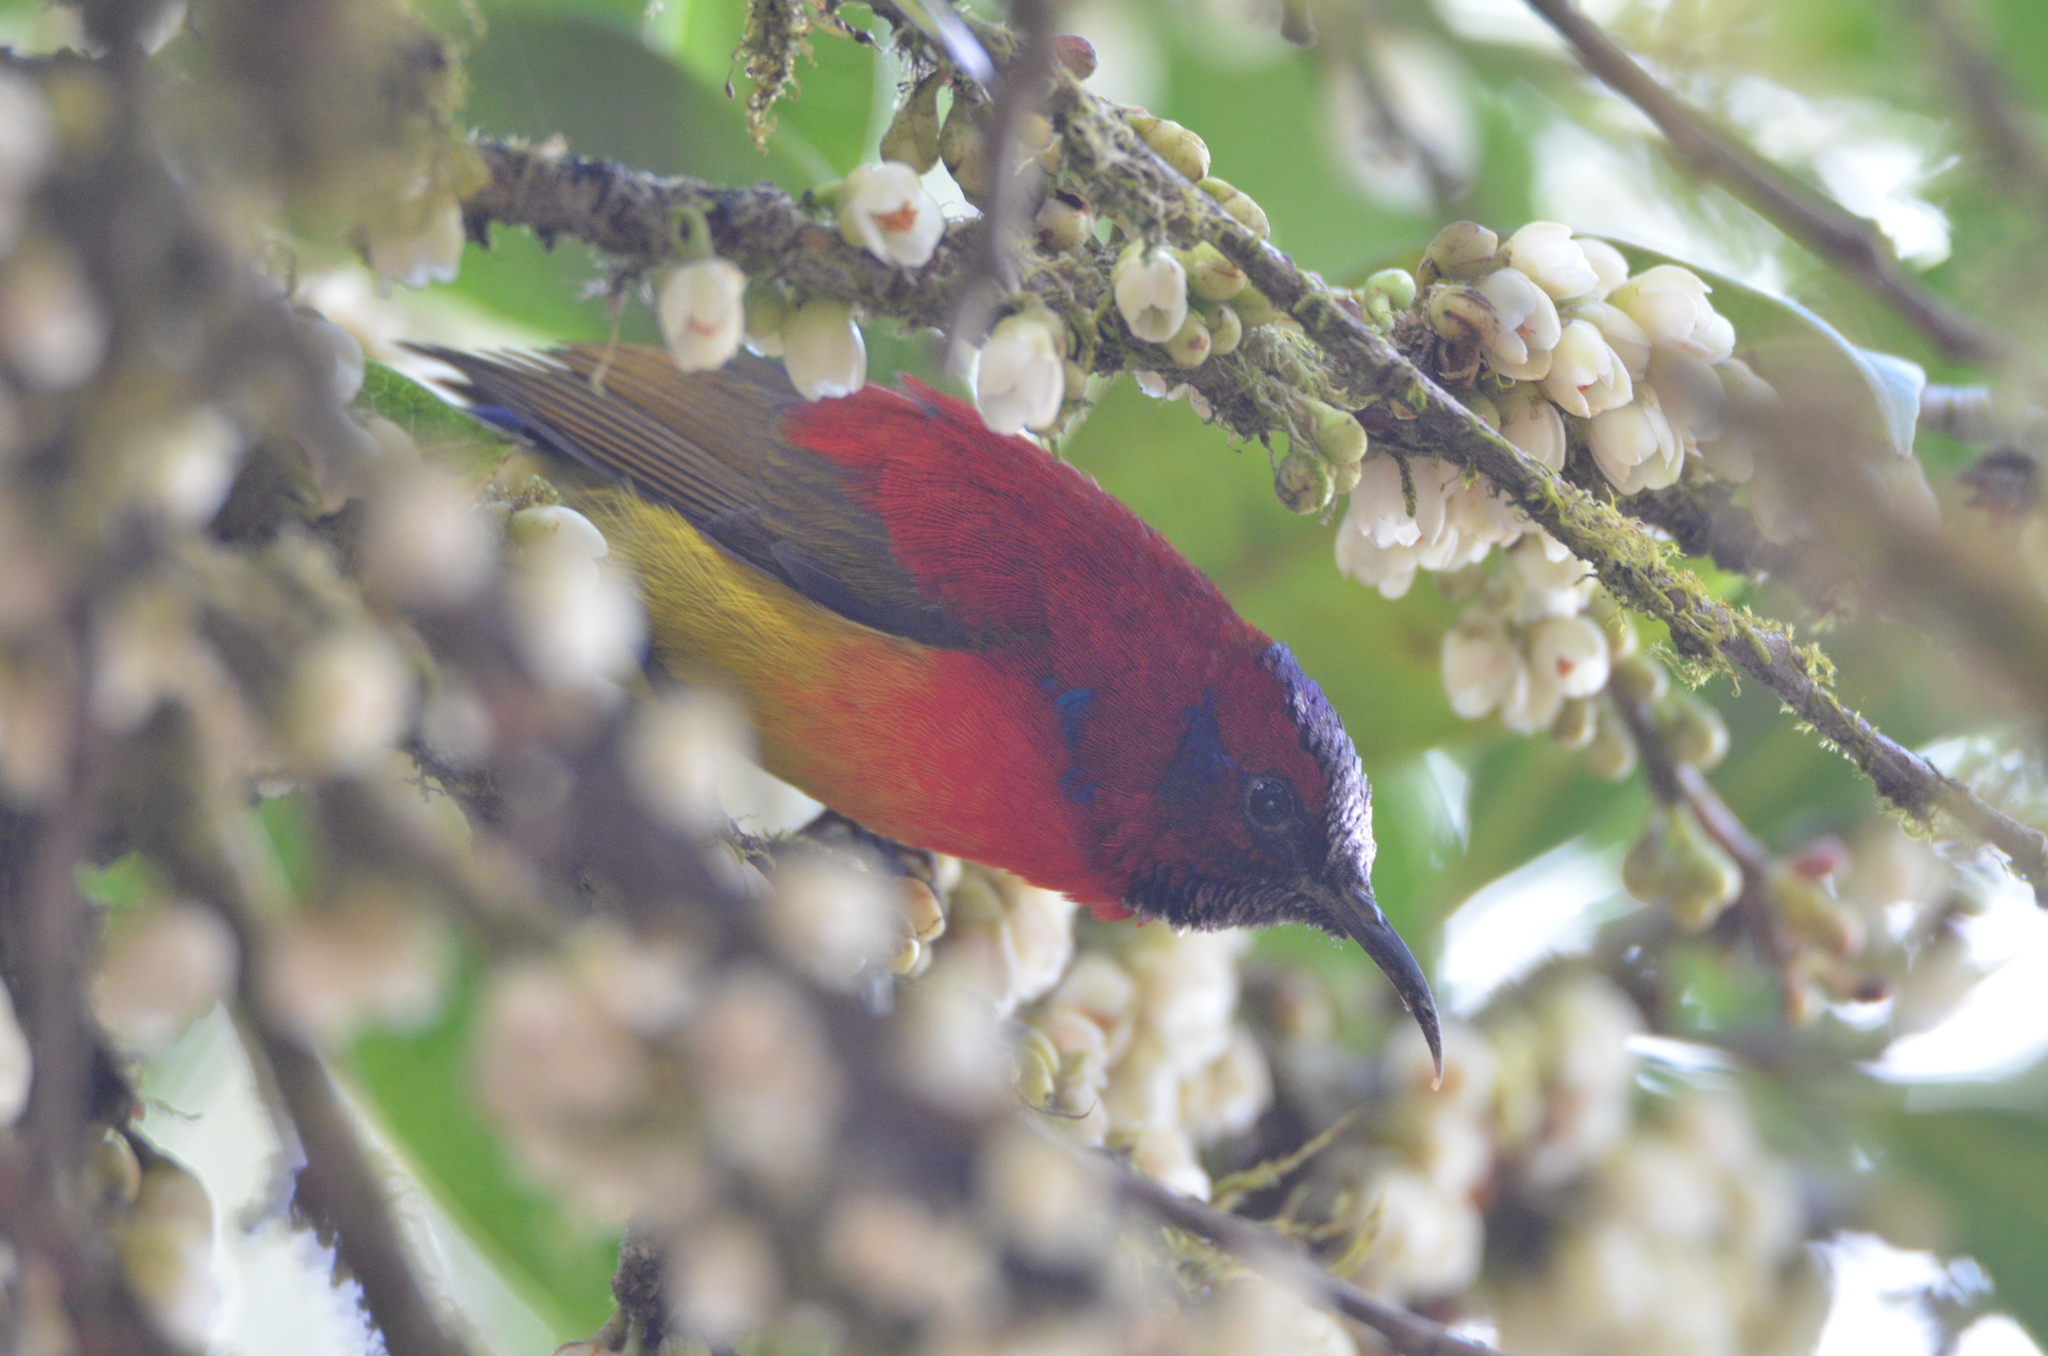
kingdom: Animalia
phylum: Chordata
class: Aves
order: Passeriformes
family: Nectariniidae
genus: Aethopyga
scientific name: Aethopyga gouldiae
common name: Mrs. gould's sunbird
